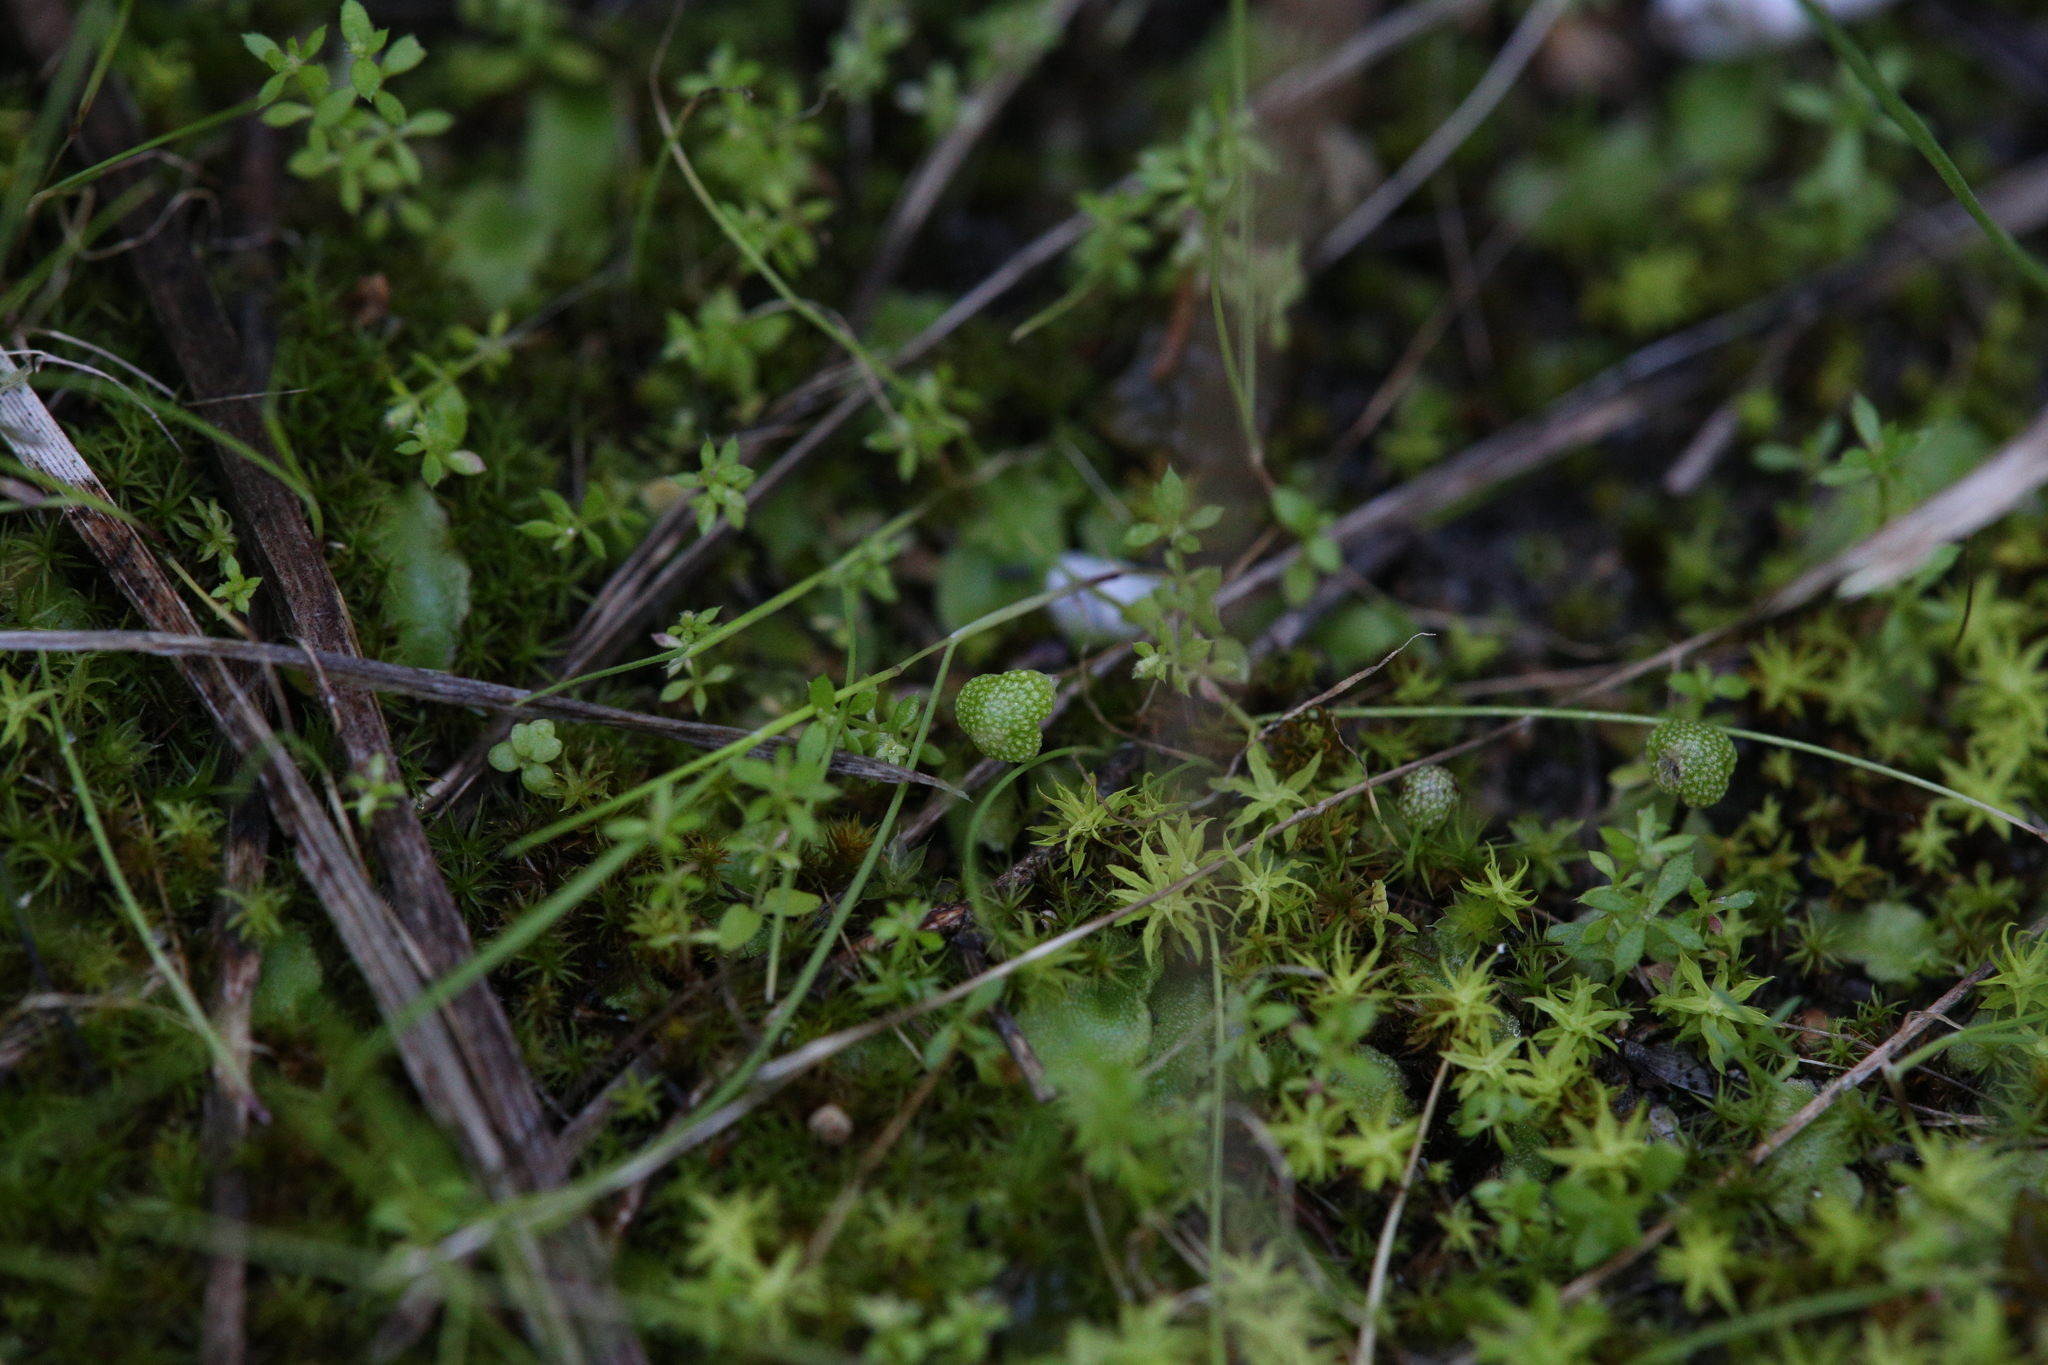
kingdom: Plantae
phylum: Marchantiophyta
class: Marchantiopsida
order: Marchantiales
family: Aytoniaceae
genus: Asterella
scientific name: Asterella drummondii
